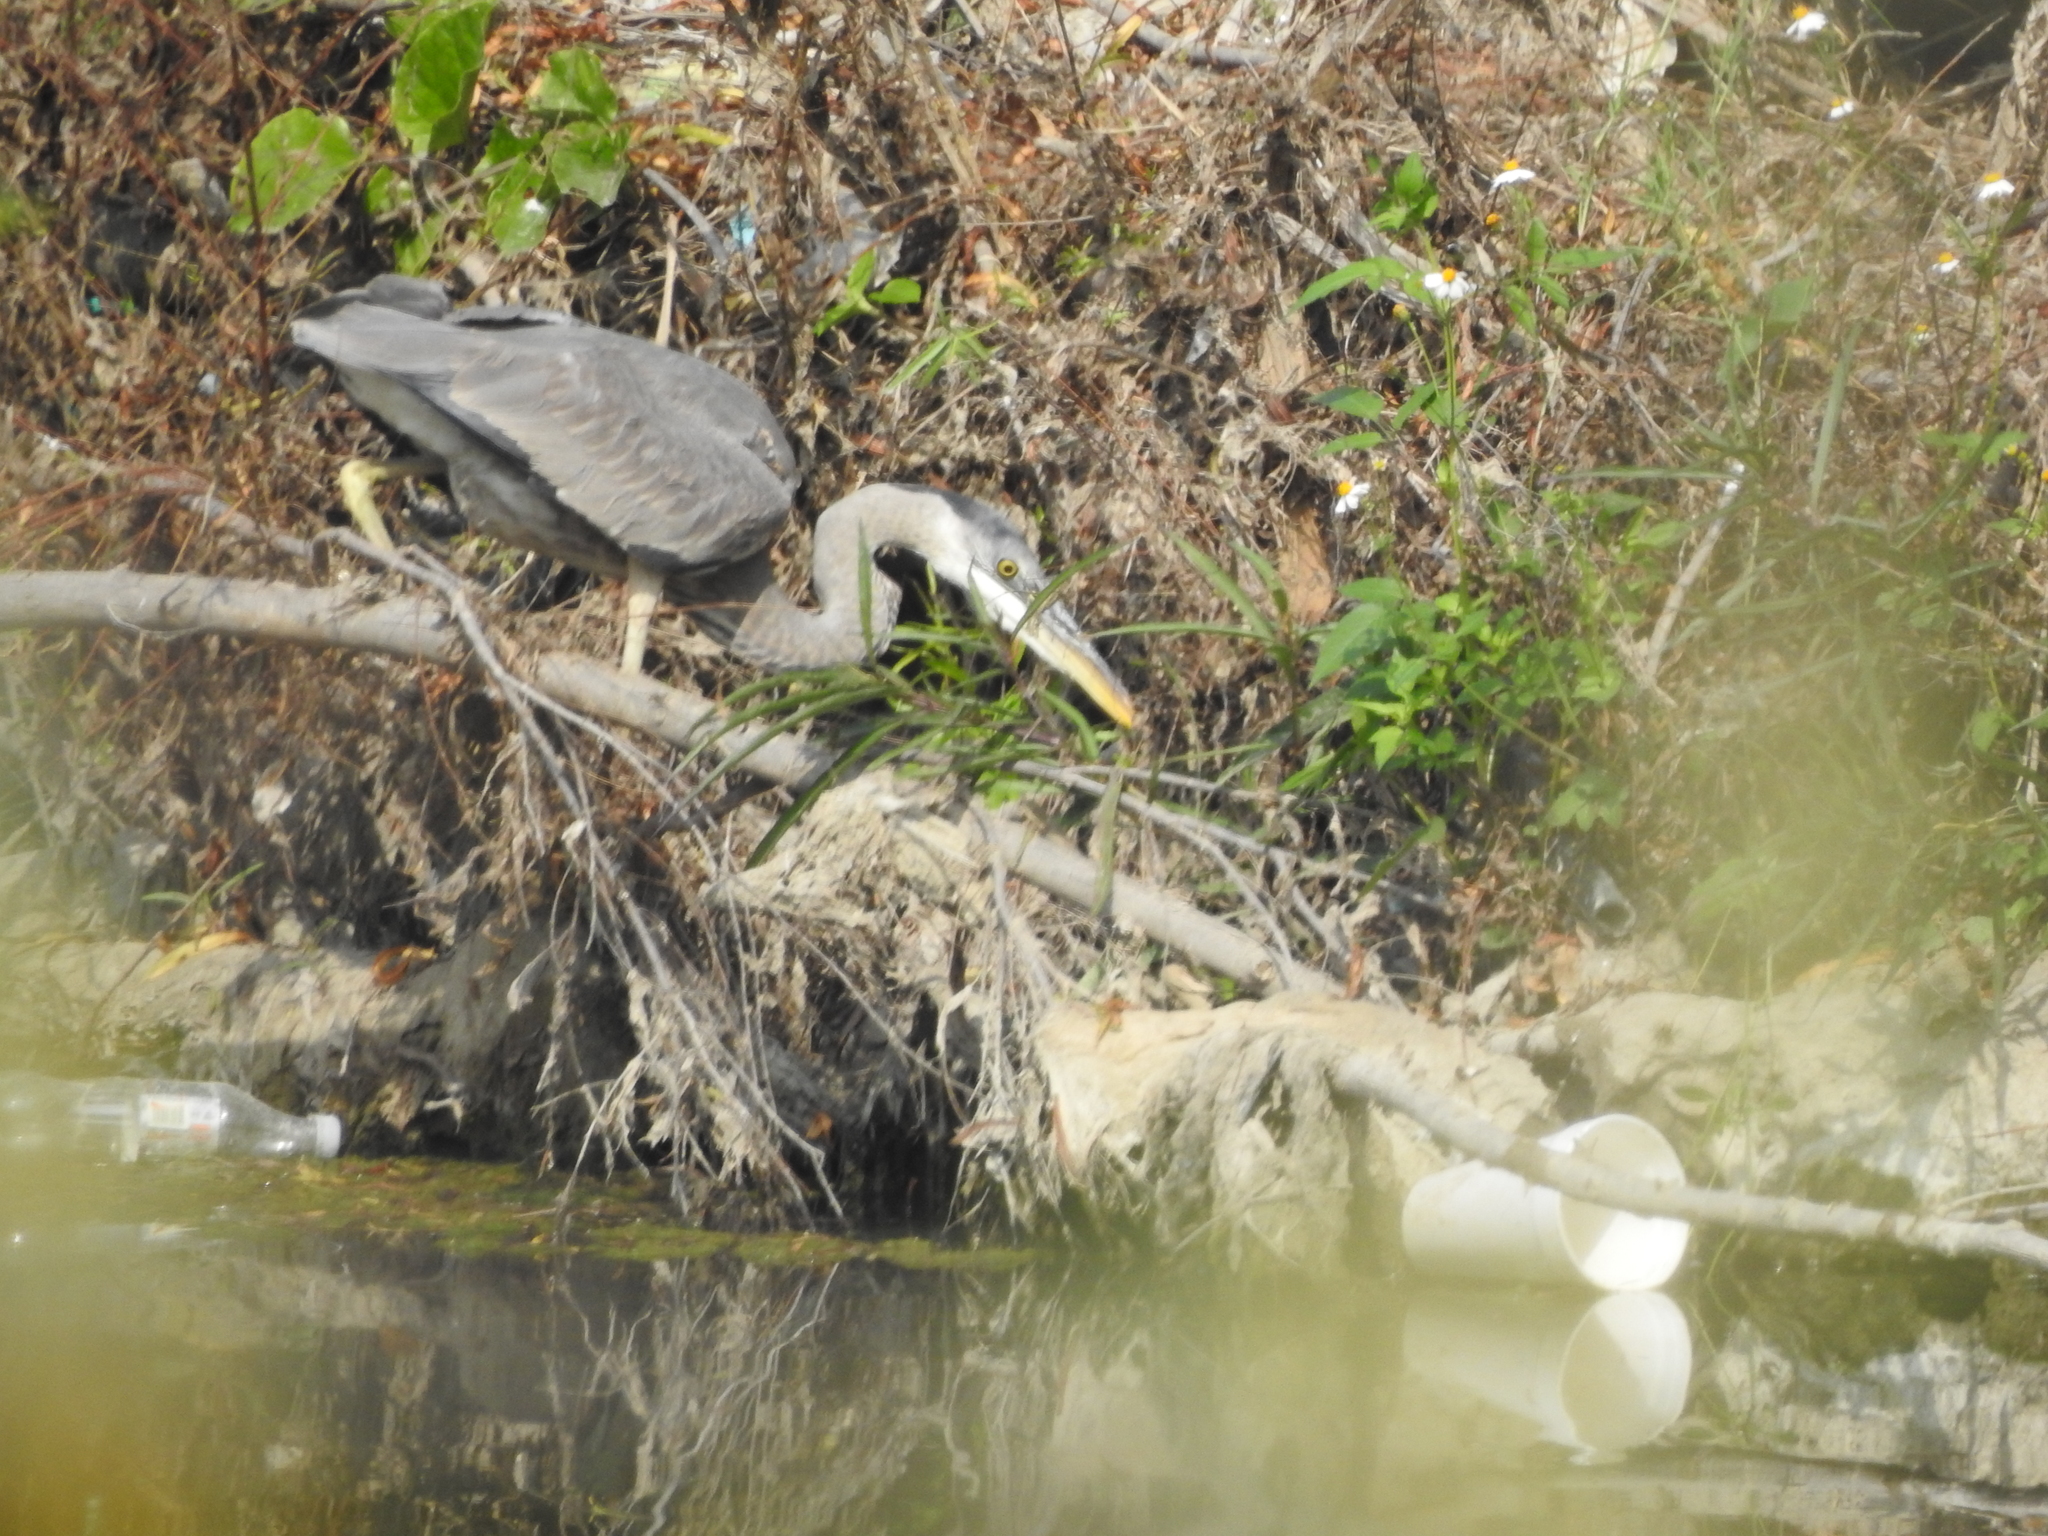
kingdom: Animalia
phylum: Chordata
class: Aves
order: Pelecaniformes
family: Ardeidae
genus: Ardea
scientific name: Ardea herodias
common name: Great blue heron
